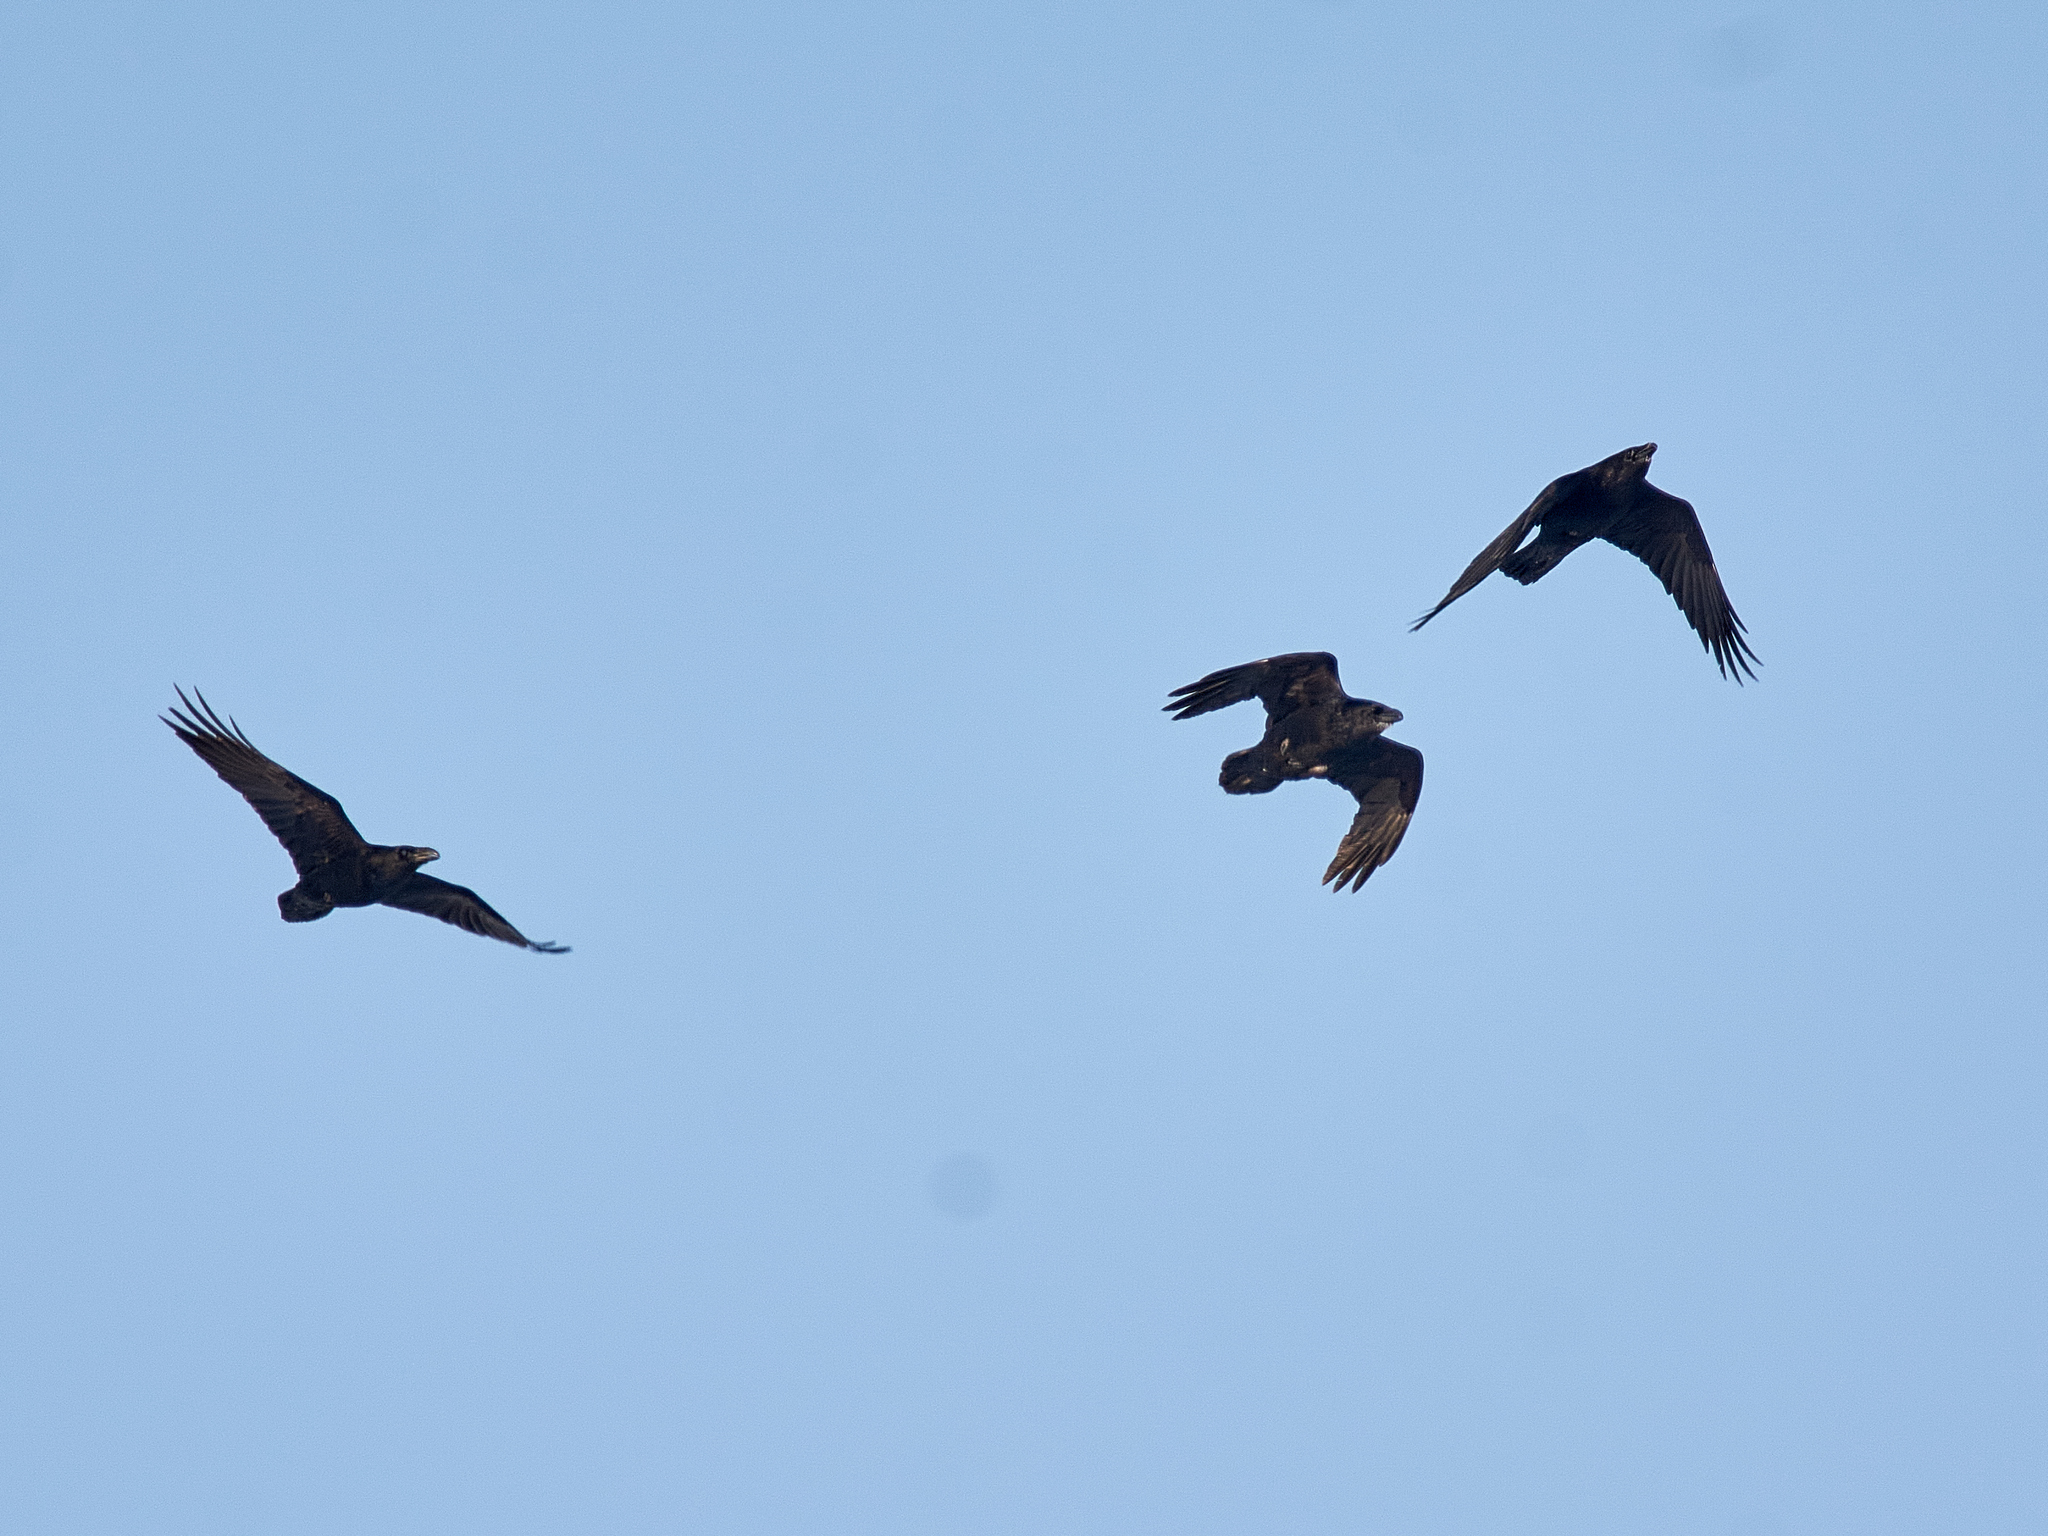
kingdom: Animalia
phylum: Chordata
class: Aves
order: Passeriformes
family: Corvidae
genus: Corvus
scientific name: Corvus corax
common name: Common raven
